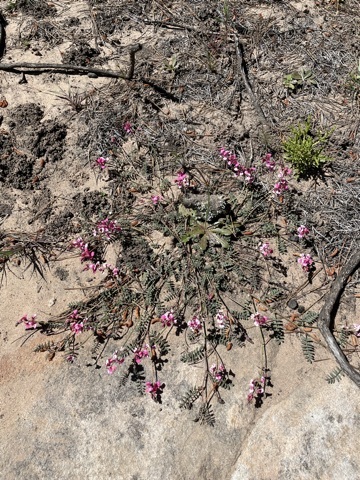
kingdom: Plantae
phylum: Tracheophyta
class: Magnoliopsida
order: Fabales
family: Fabaceae
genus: Indigofera
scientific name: Indigofera
